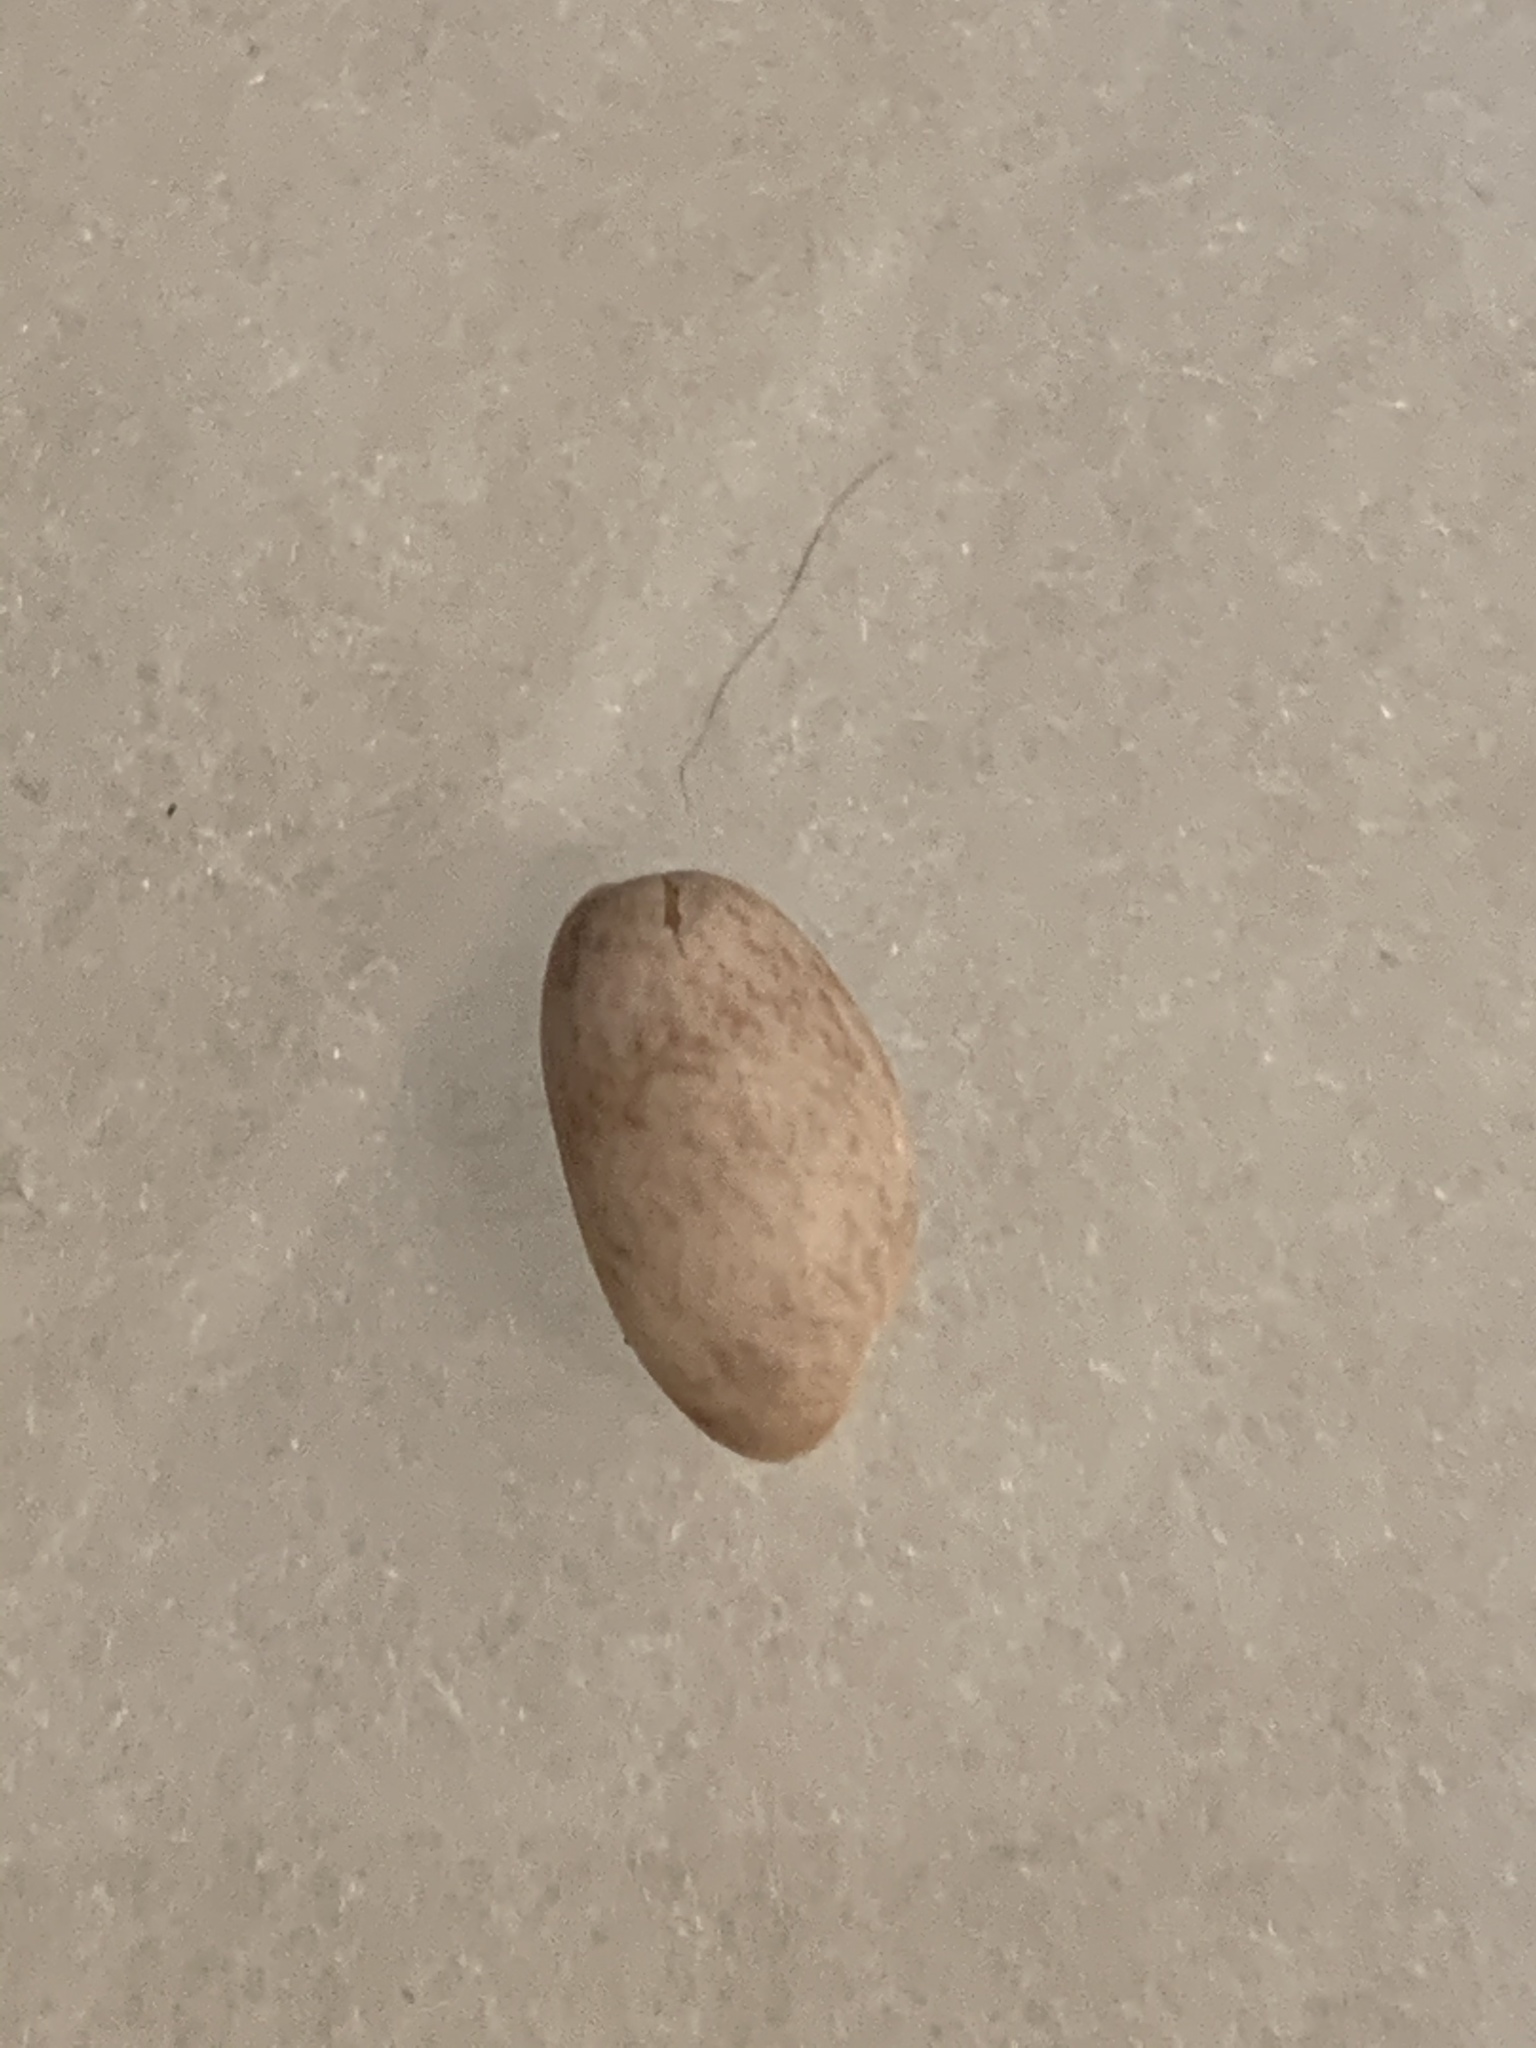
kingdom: Animalia
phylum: Mollusca
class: Gastropoda
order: Cephalaspidea
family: Bullidae
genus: Bulla
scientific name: Bulla occidentalis
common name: Common west-indian bubble
